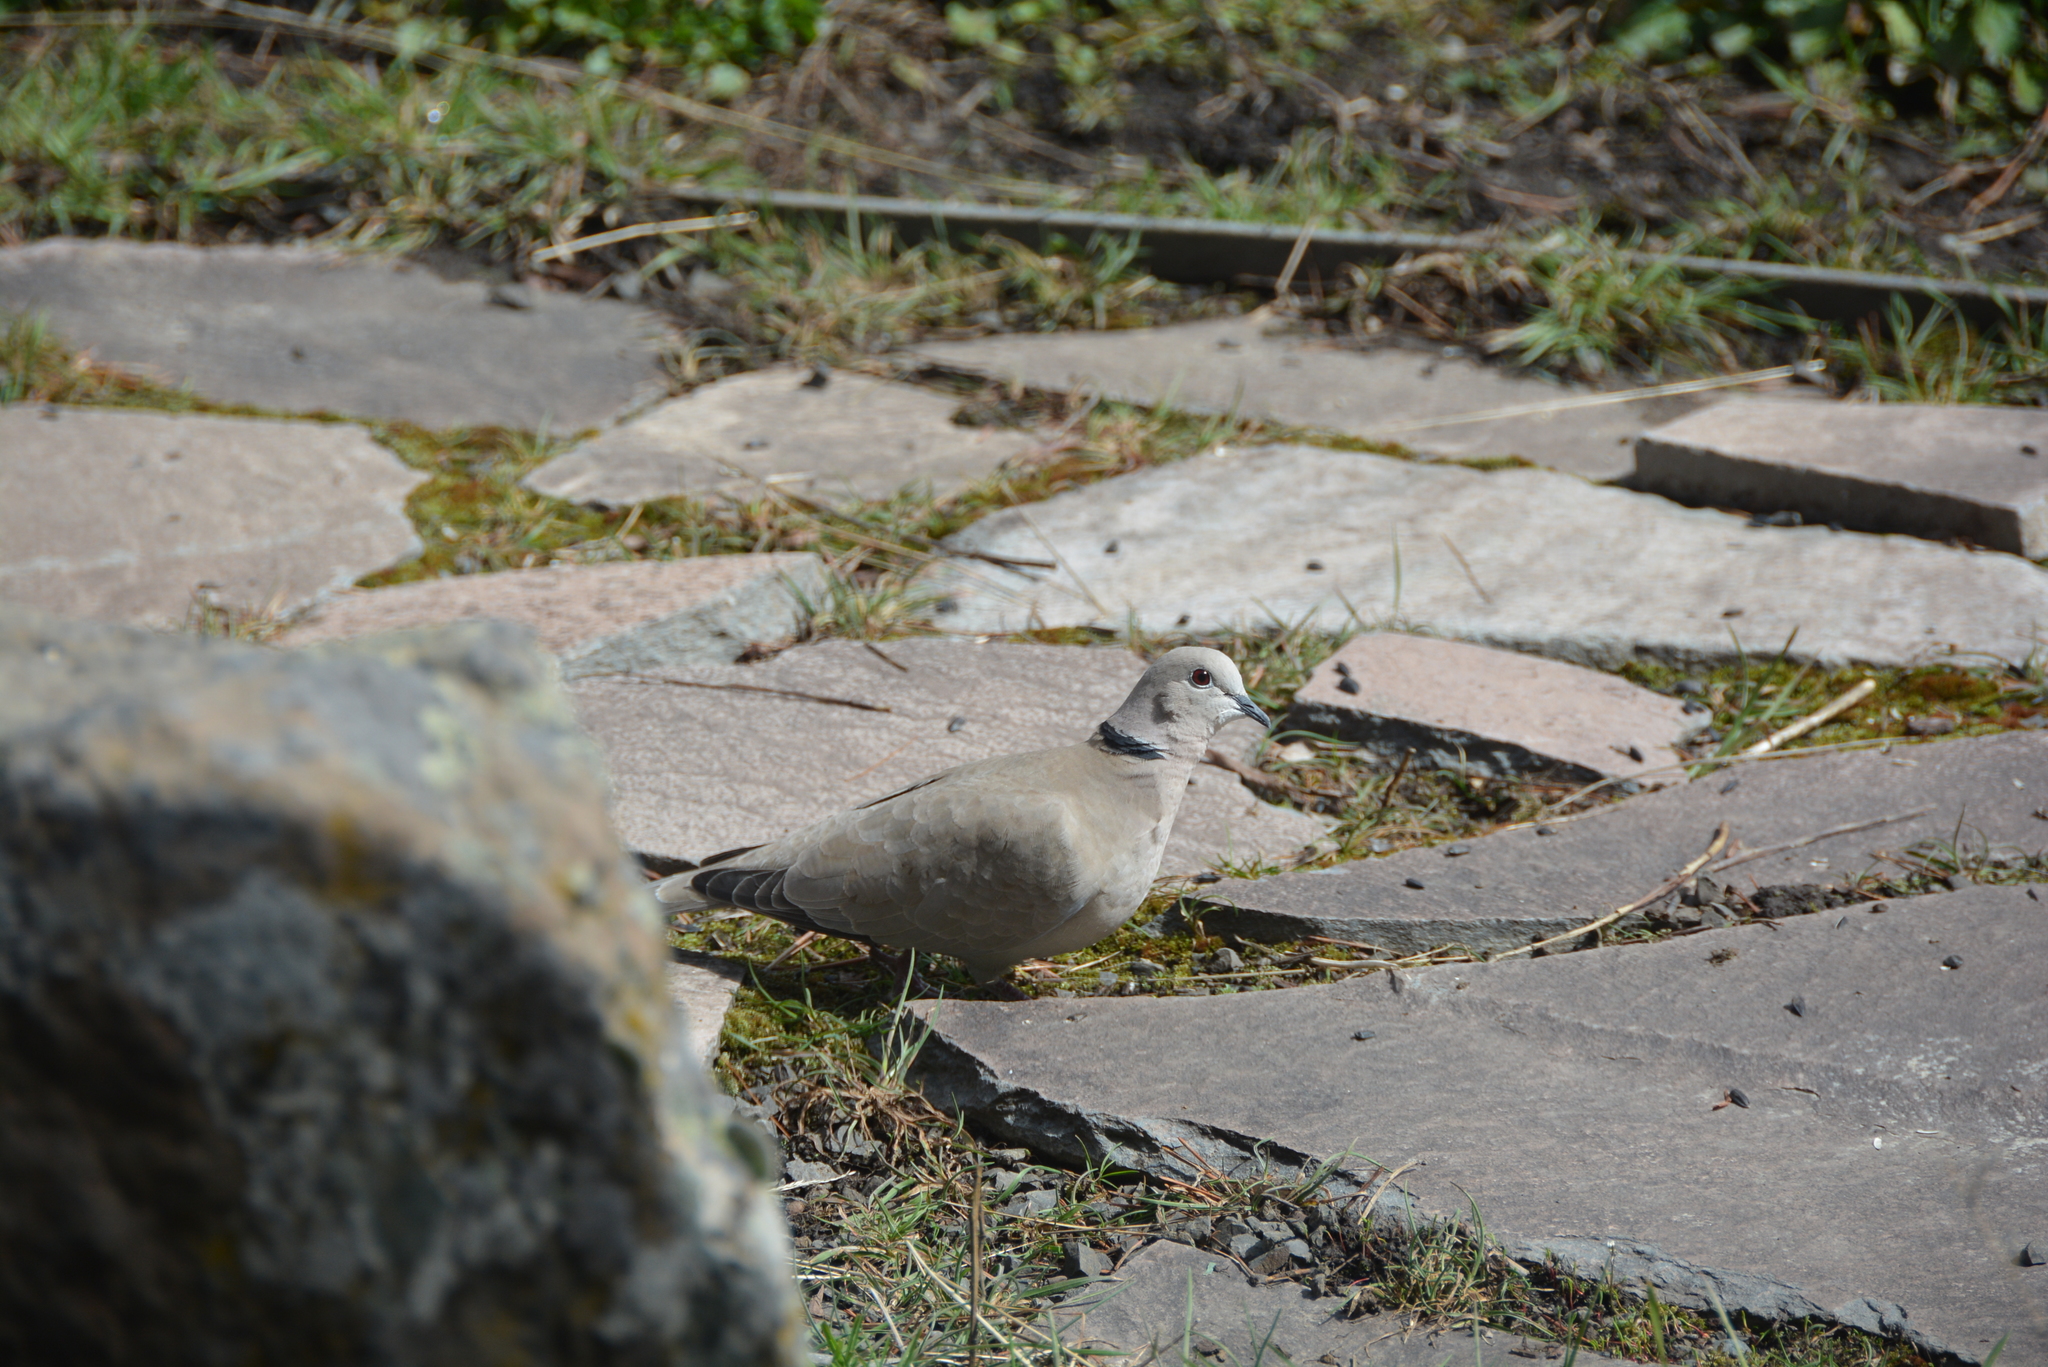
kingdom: Animalia
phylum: Chordata
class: Aves
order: Columbiformes
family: Columbidae
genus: Streptopelia
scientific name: Streptopelia decaocto
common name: Eurasian collared dove
